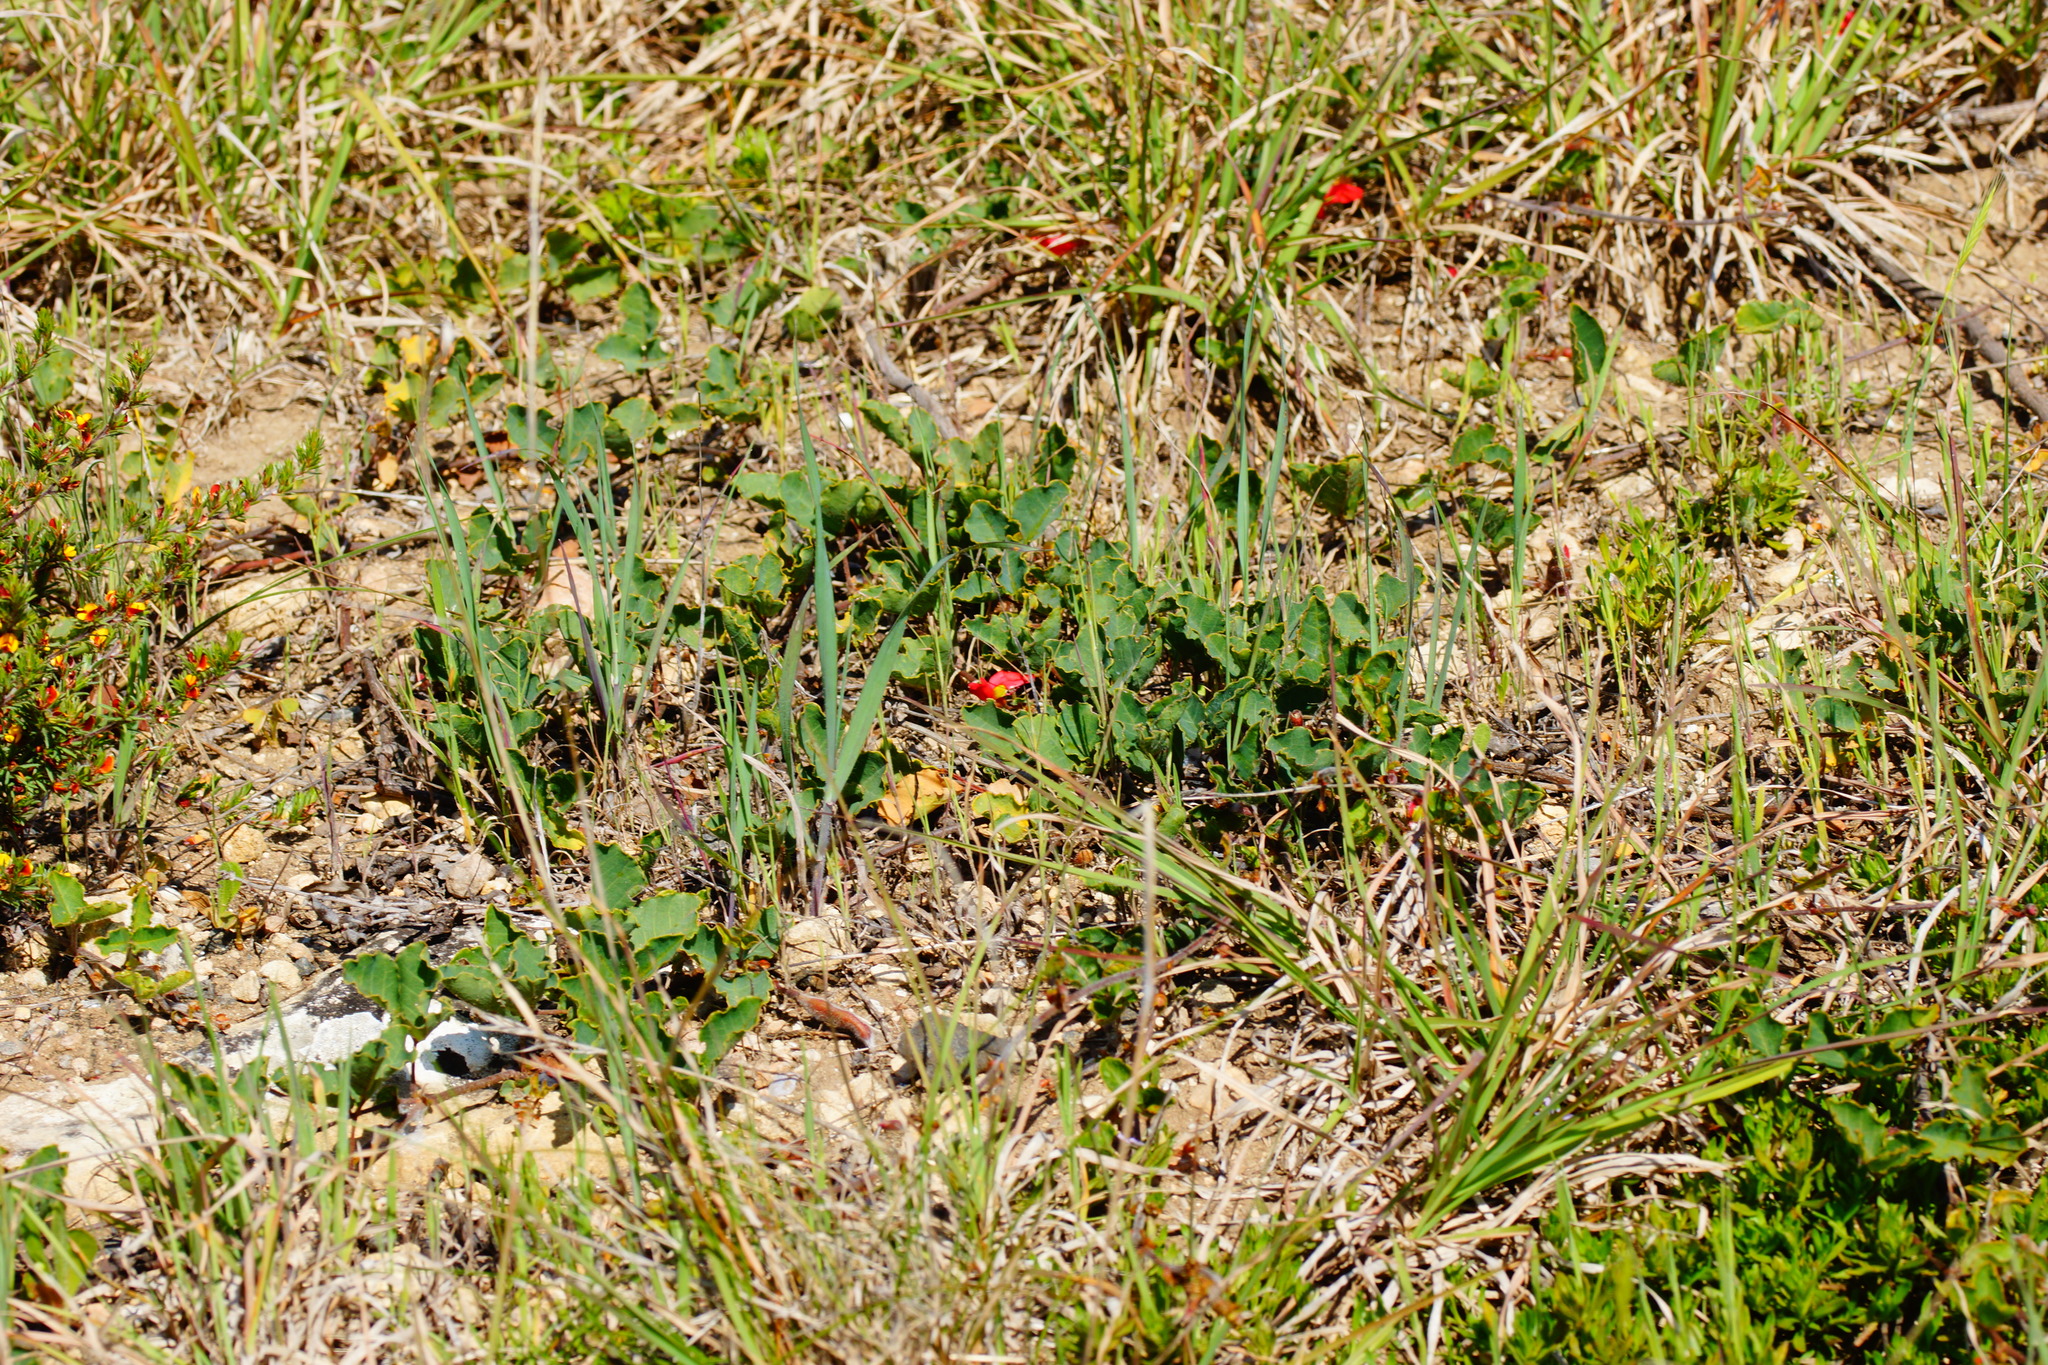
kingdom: Plantae
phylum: Tracheophyta
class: Magnoliopsida
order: Fabales
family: Fabaceae
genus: Kennedia
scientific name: Kennedia prostrata
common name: Running-postman
